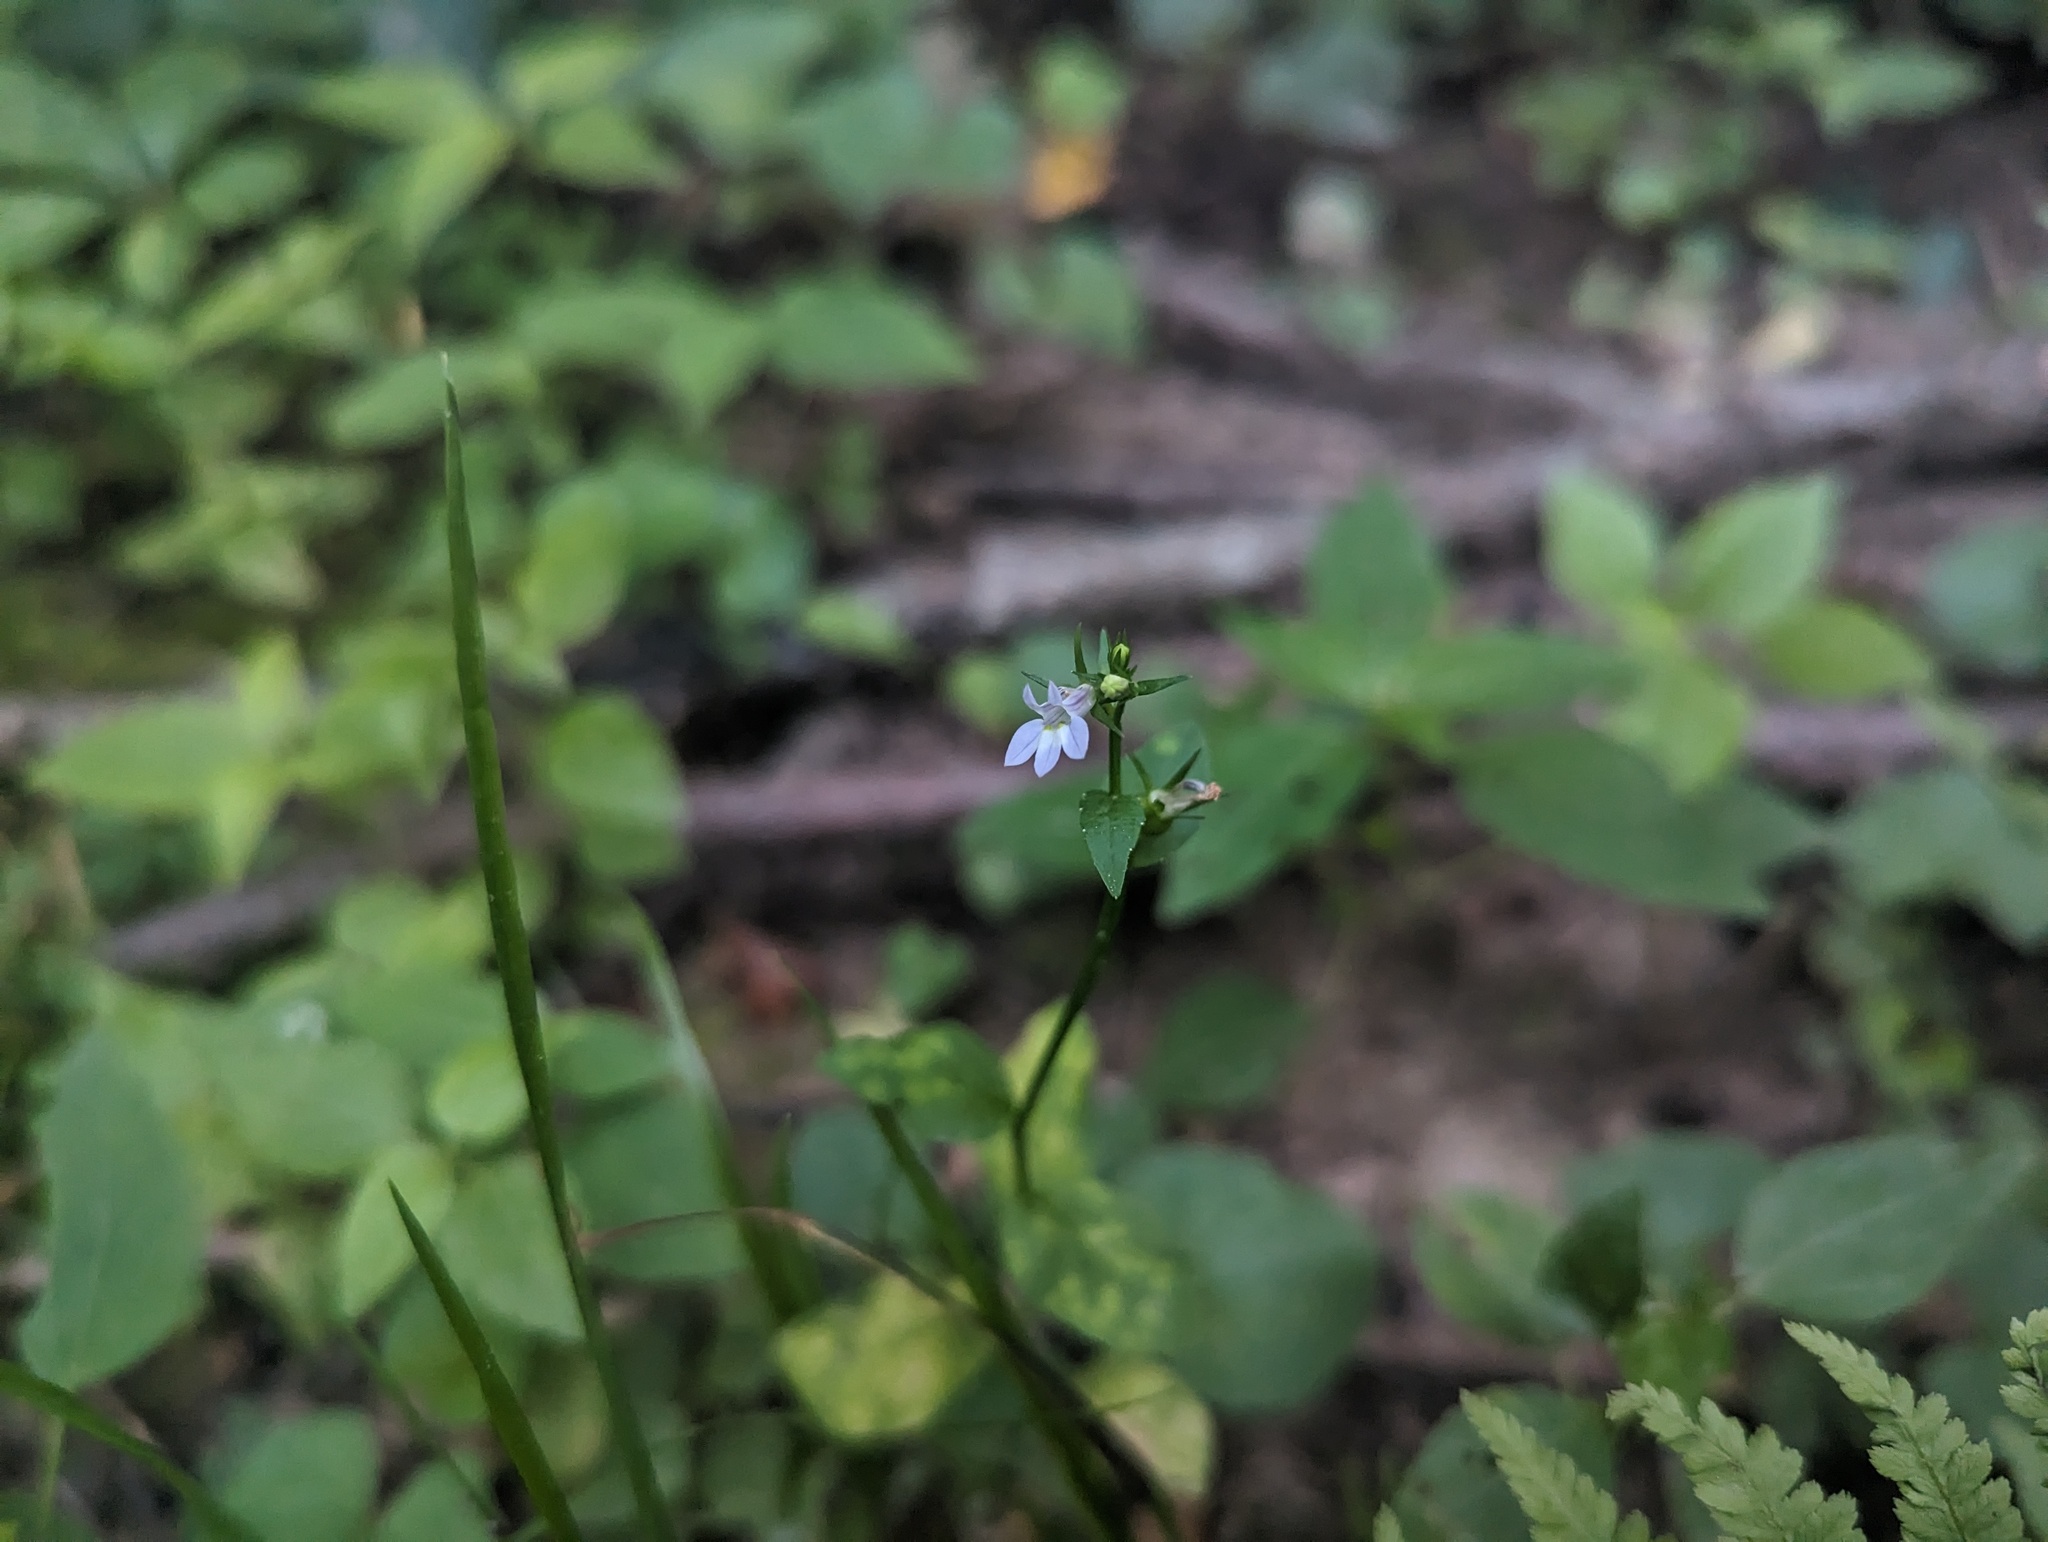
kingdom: Plantae
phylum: Tracheophyta
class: Magnoliopsida
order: Asterales
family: Campanulaceae
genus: Lobelia
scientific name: Lobelia inflata
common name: Indian tobacco
